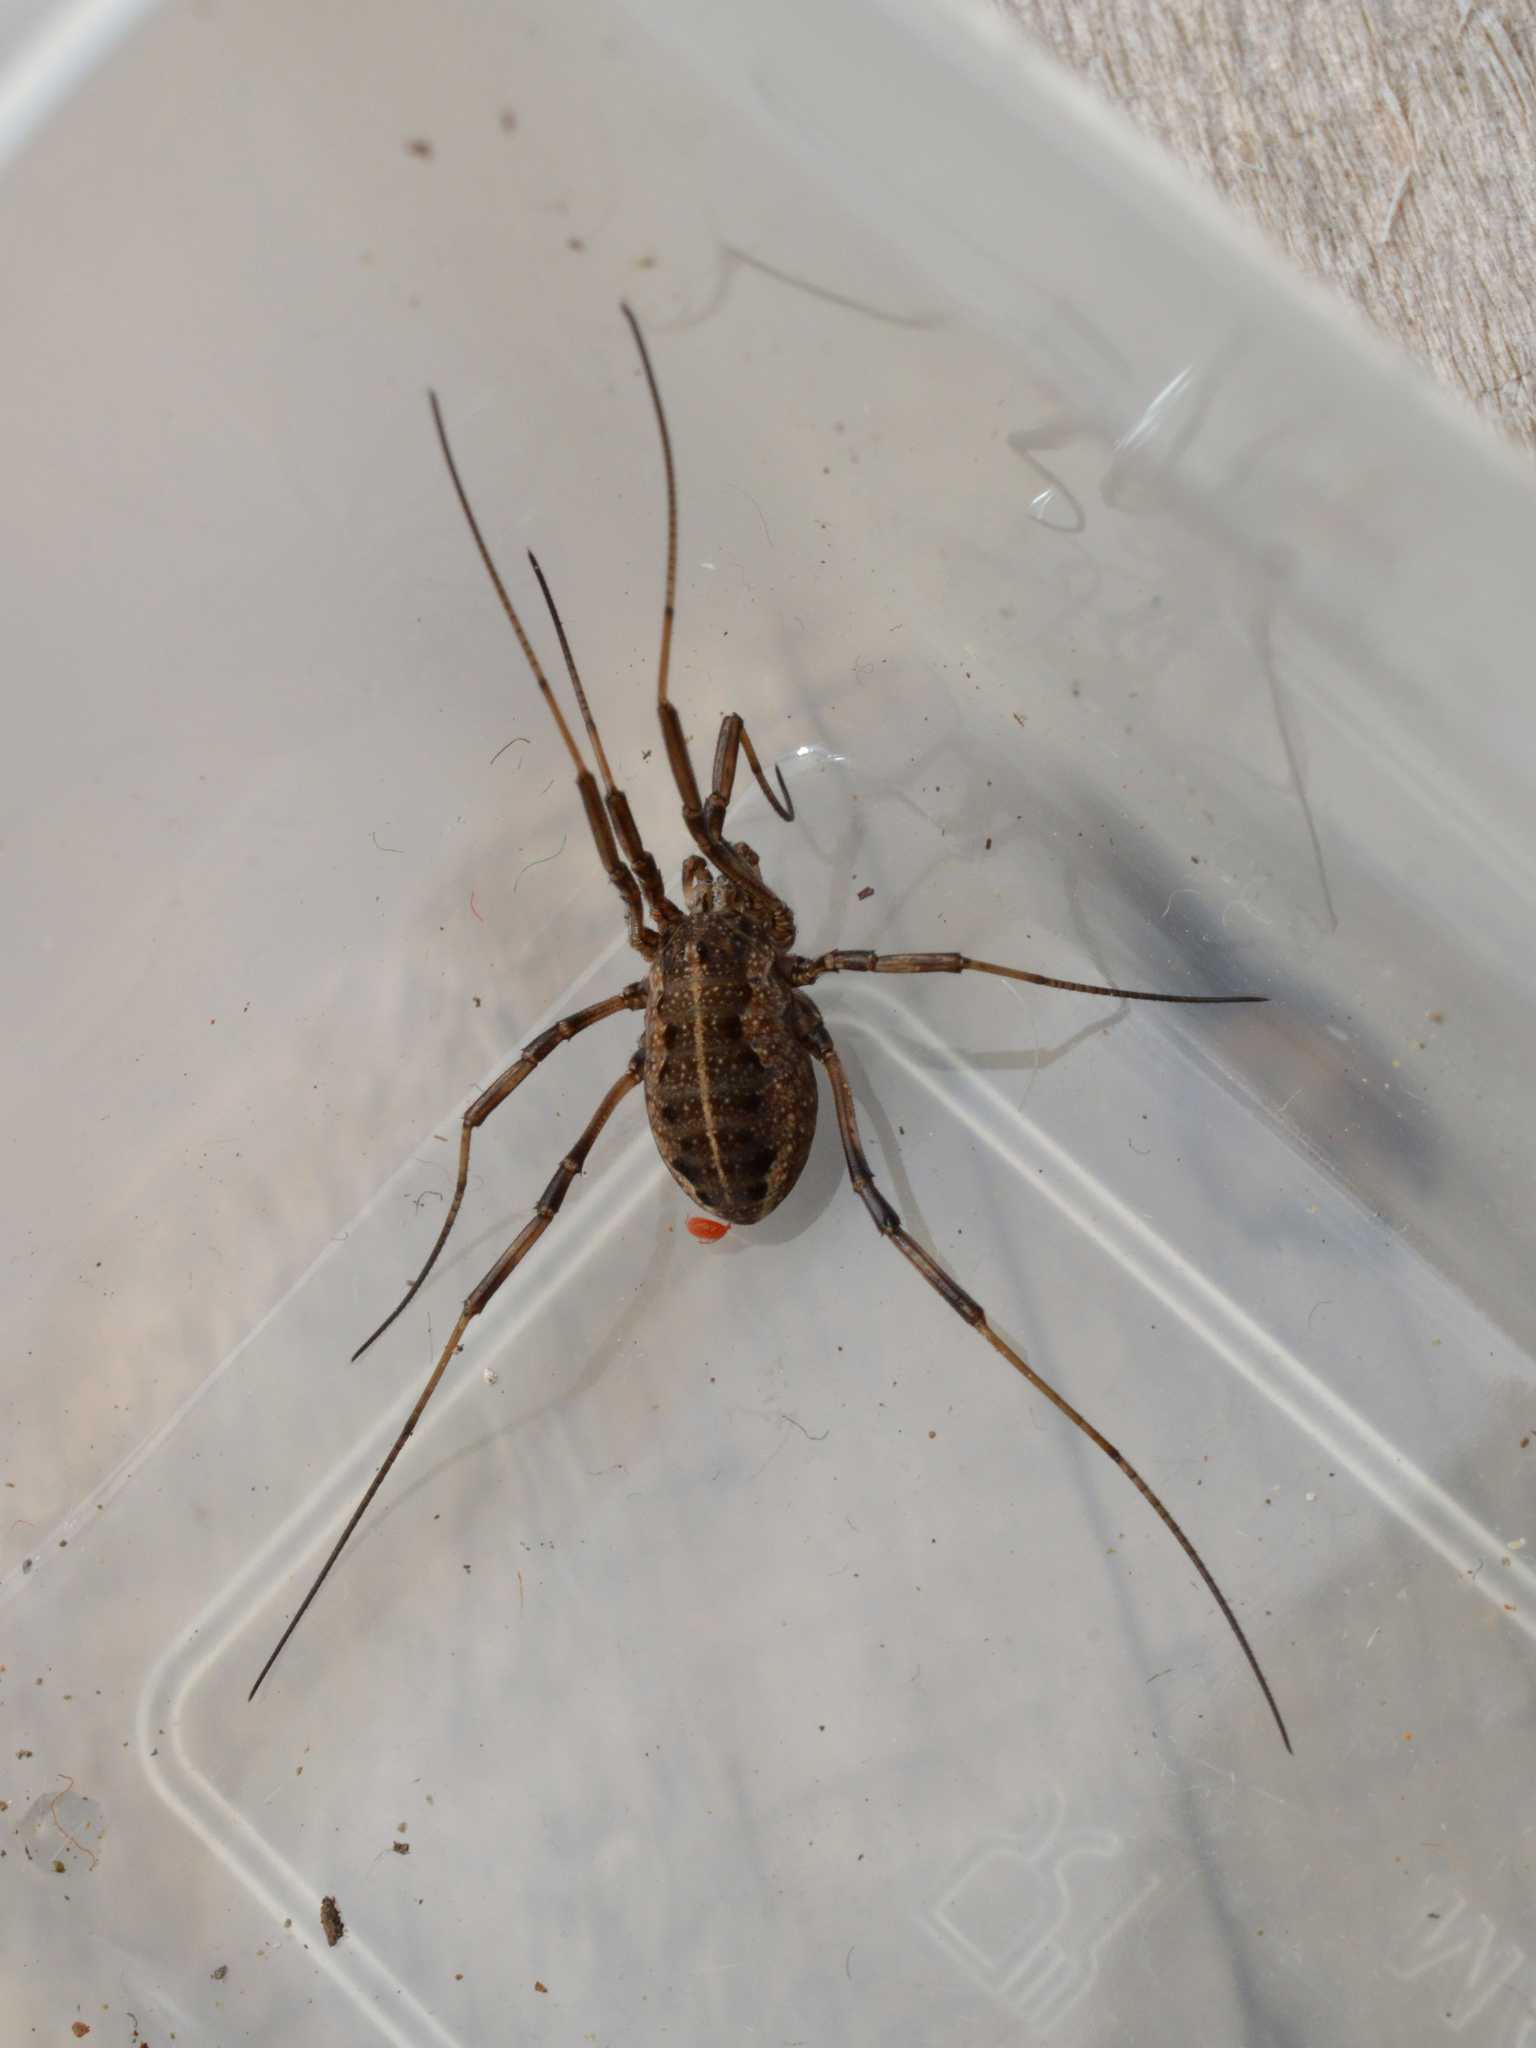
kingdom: Animalia
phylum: Arthropoda
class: Arachnida
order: Opiliones
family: Phalangiidae
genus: Zachaeus
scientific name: Zachaeus crista
